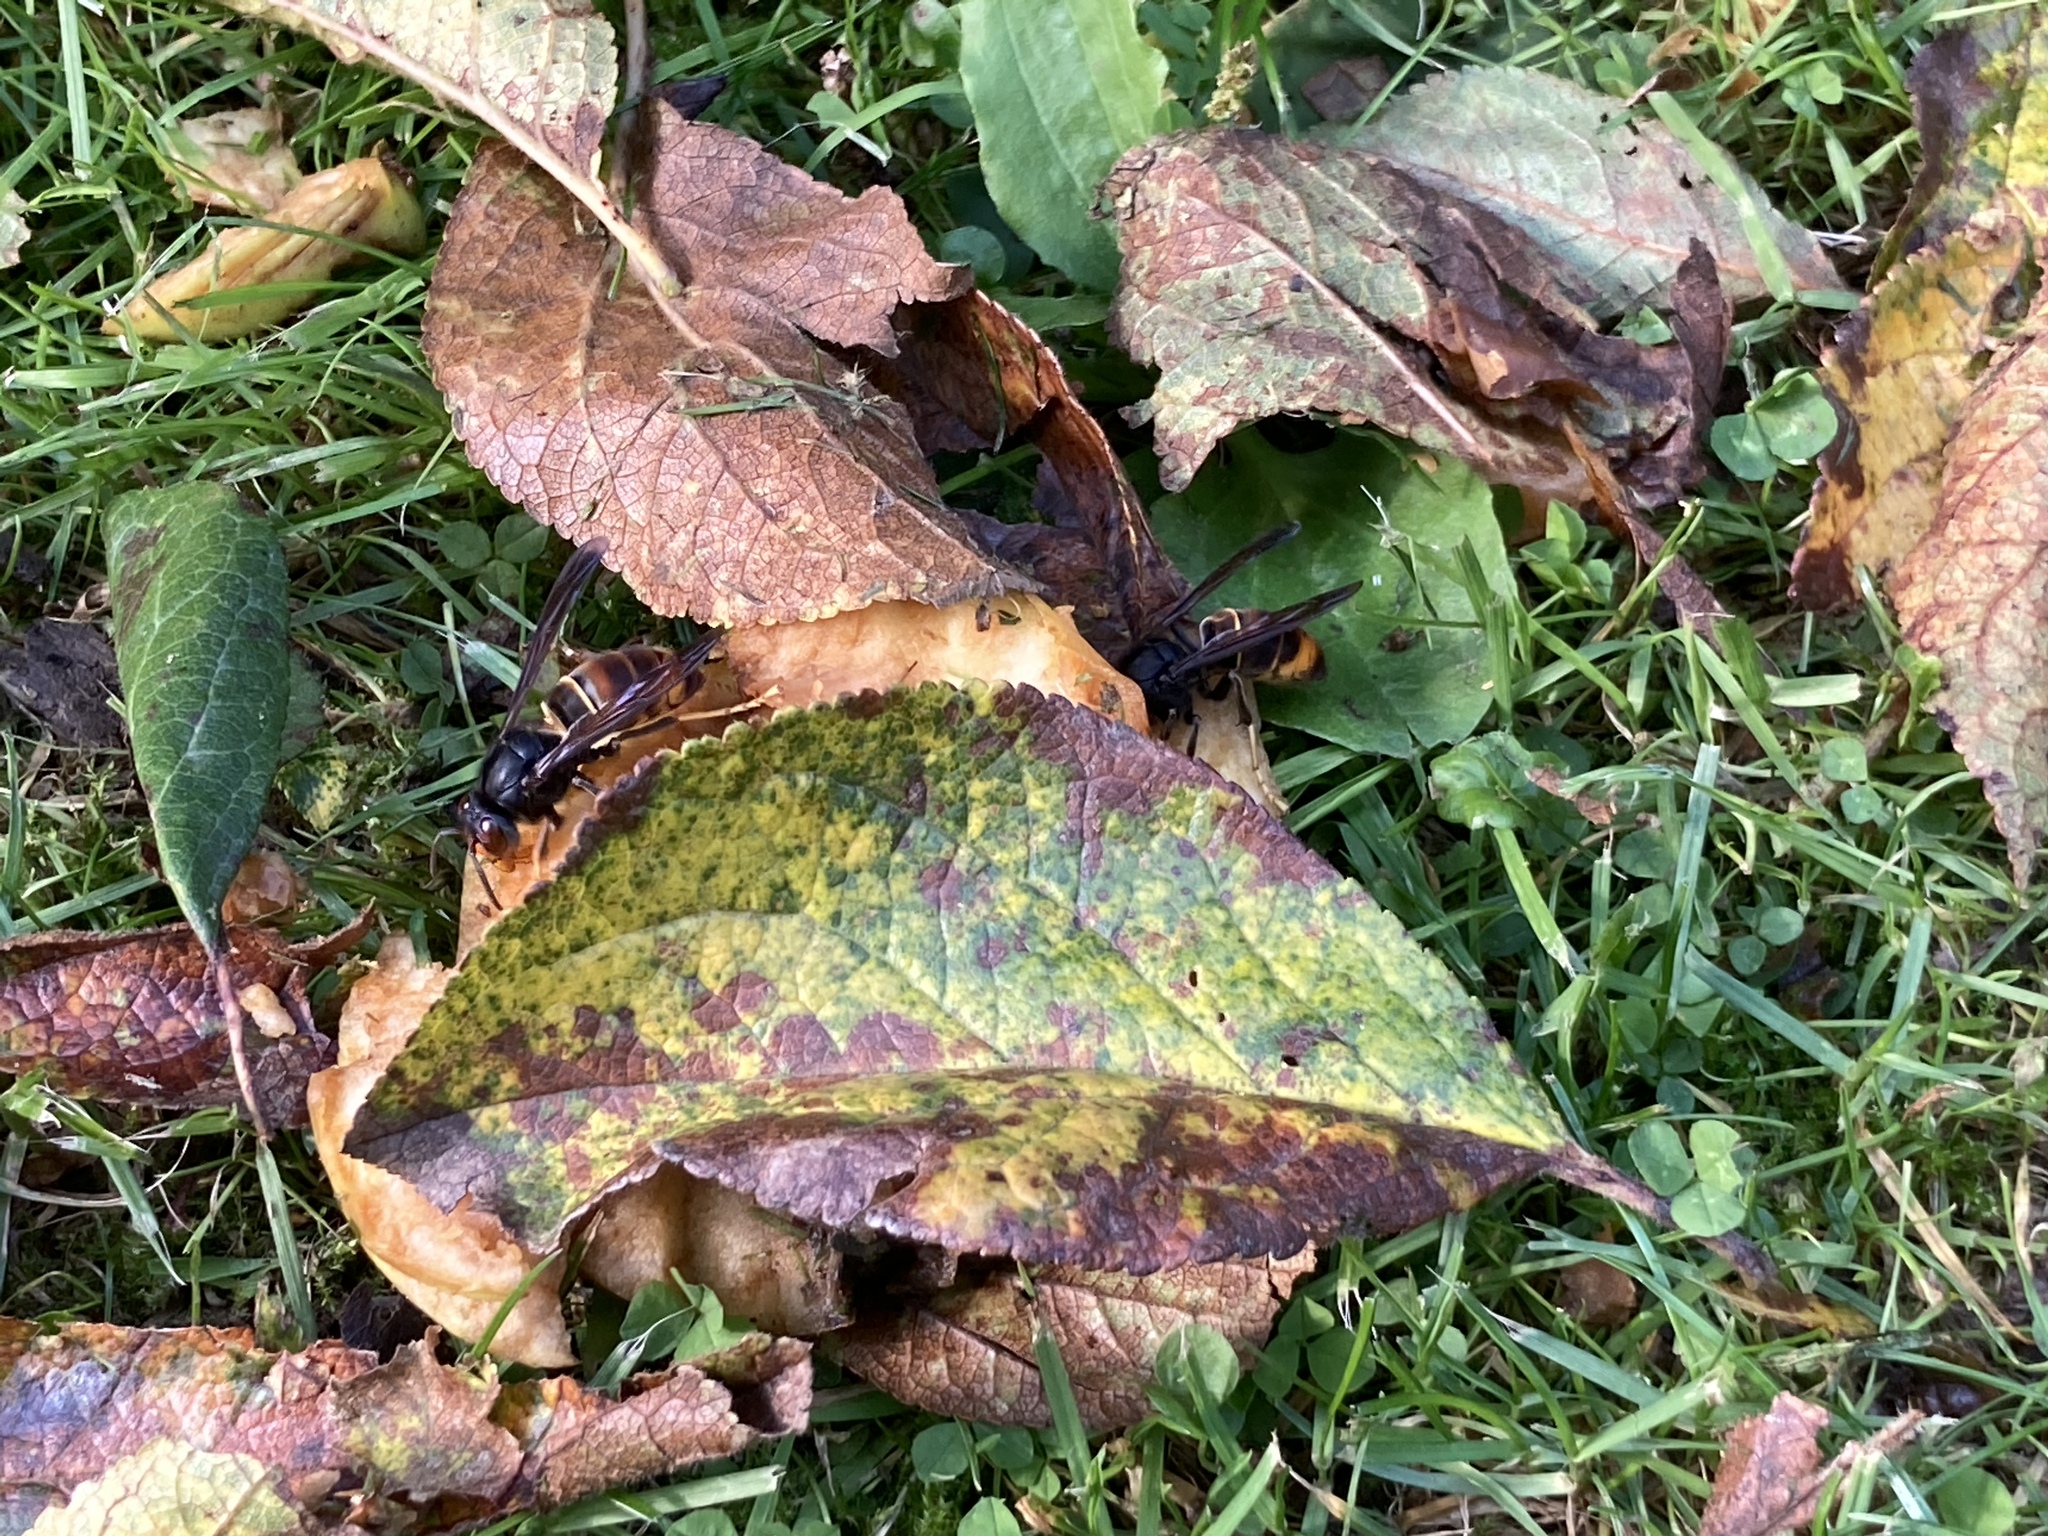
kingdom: Animalia
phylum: Arthropoda
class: Insecta
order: Hymenoptera
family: Vespidae
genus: Vespa
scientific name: Vespa velutina
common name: Asian hornet
